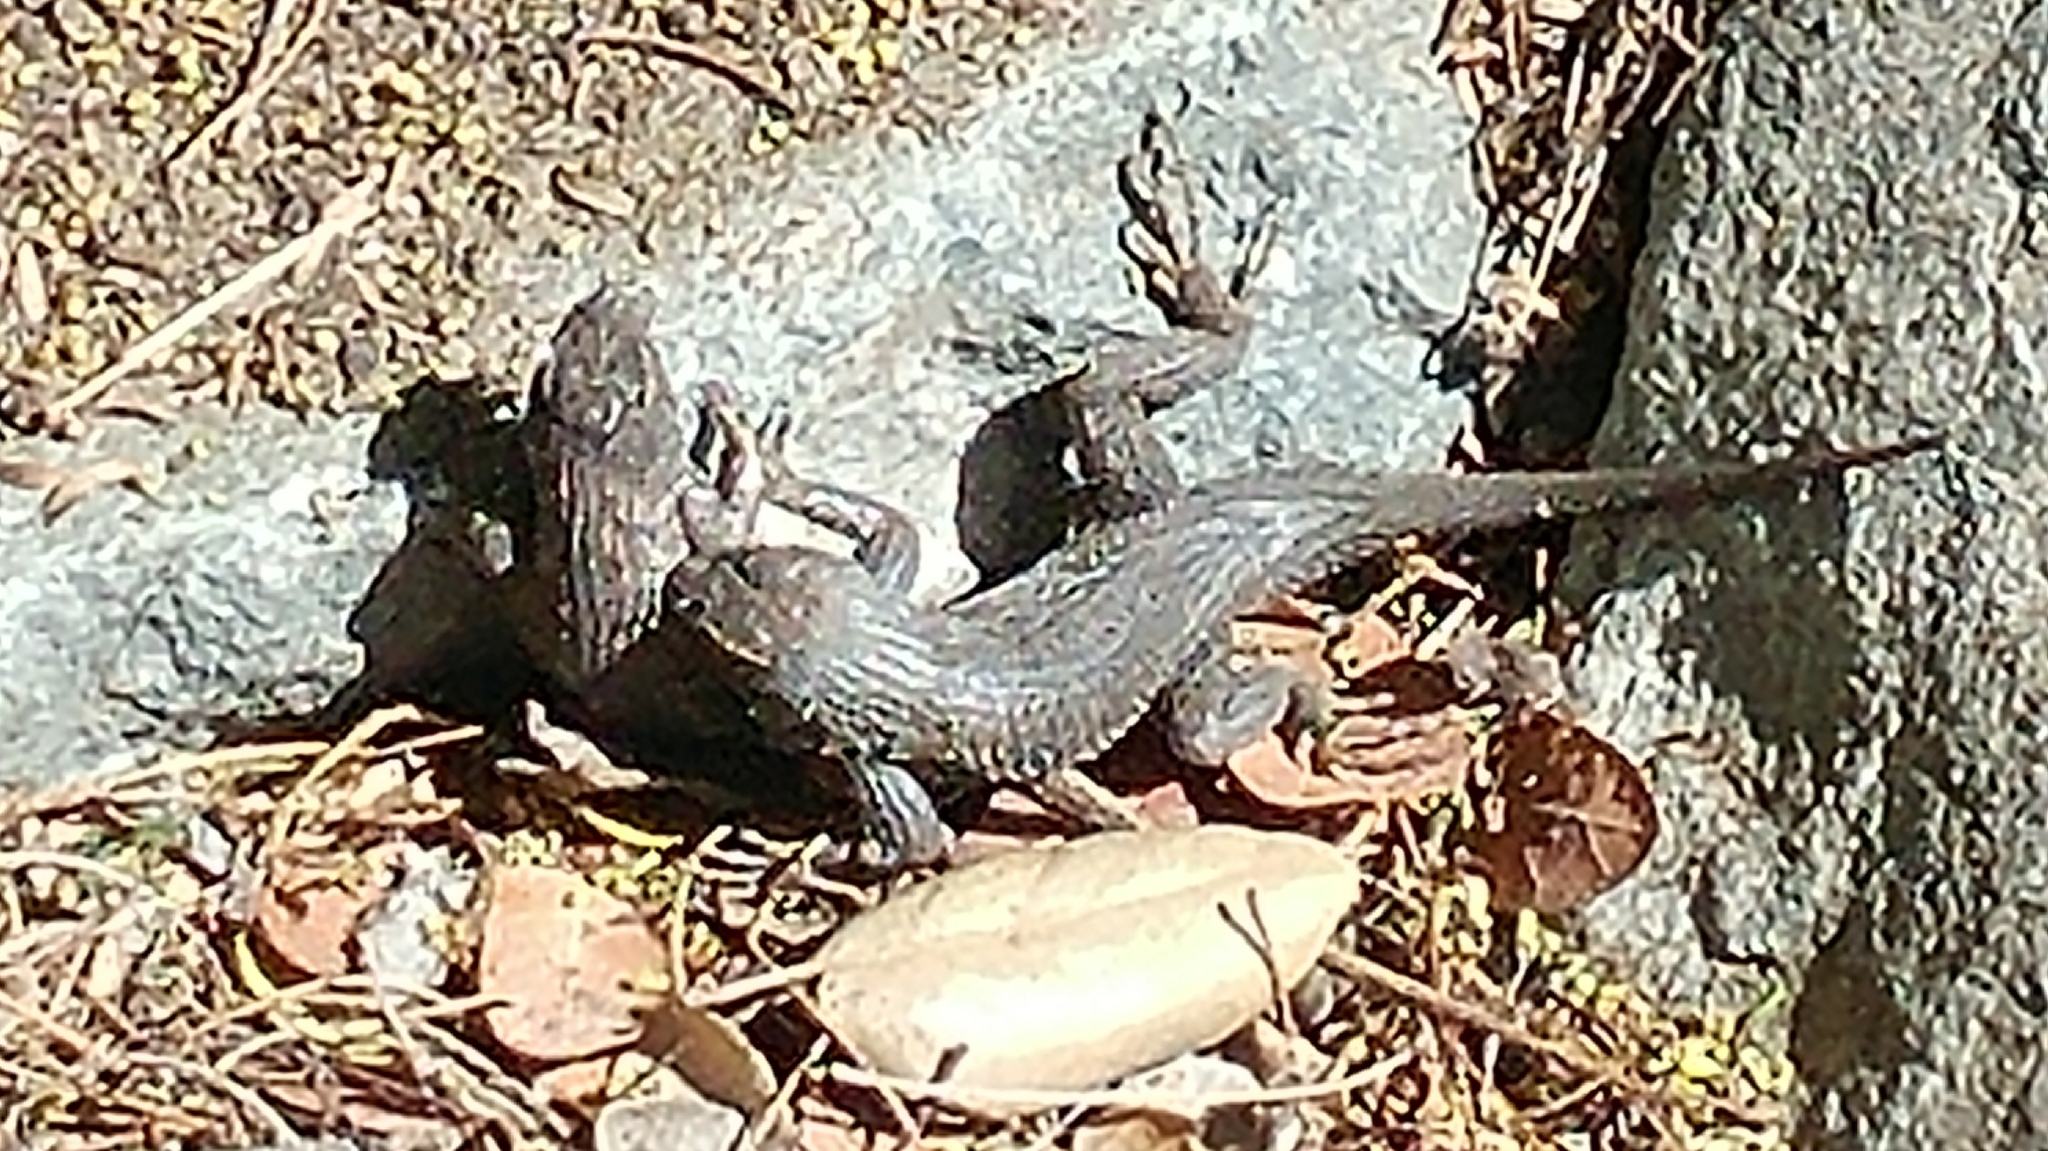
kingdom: Animalia
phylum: Chordata
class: Squamata
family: Phrynosomatidae
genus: Sceloporus
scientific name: Sceloporus occidentalis
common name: Western fence lizard
